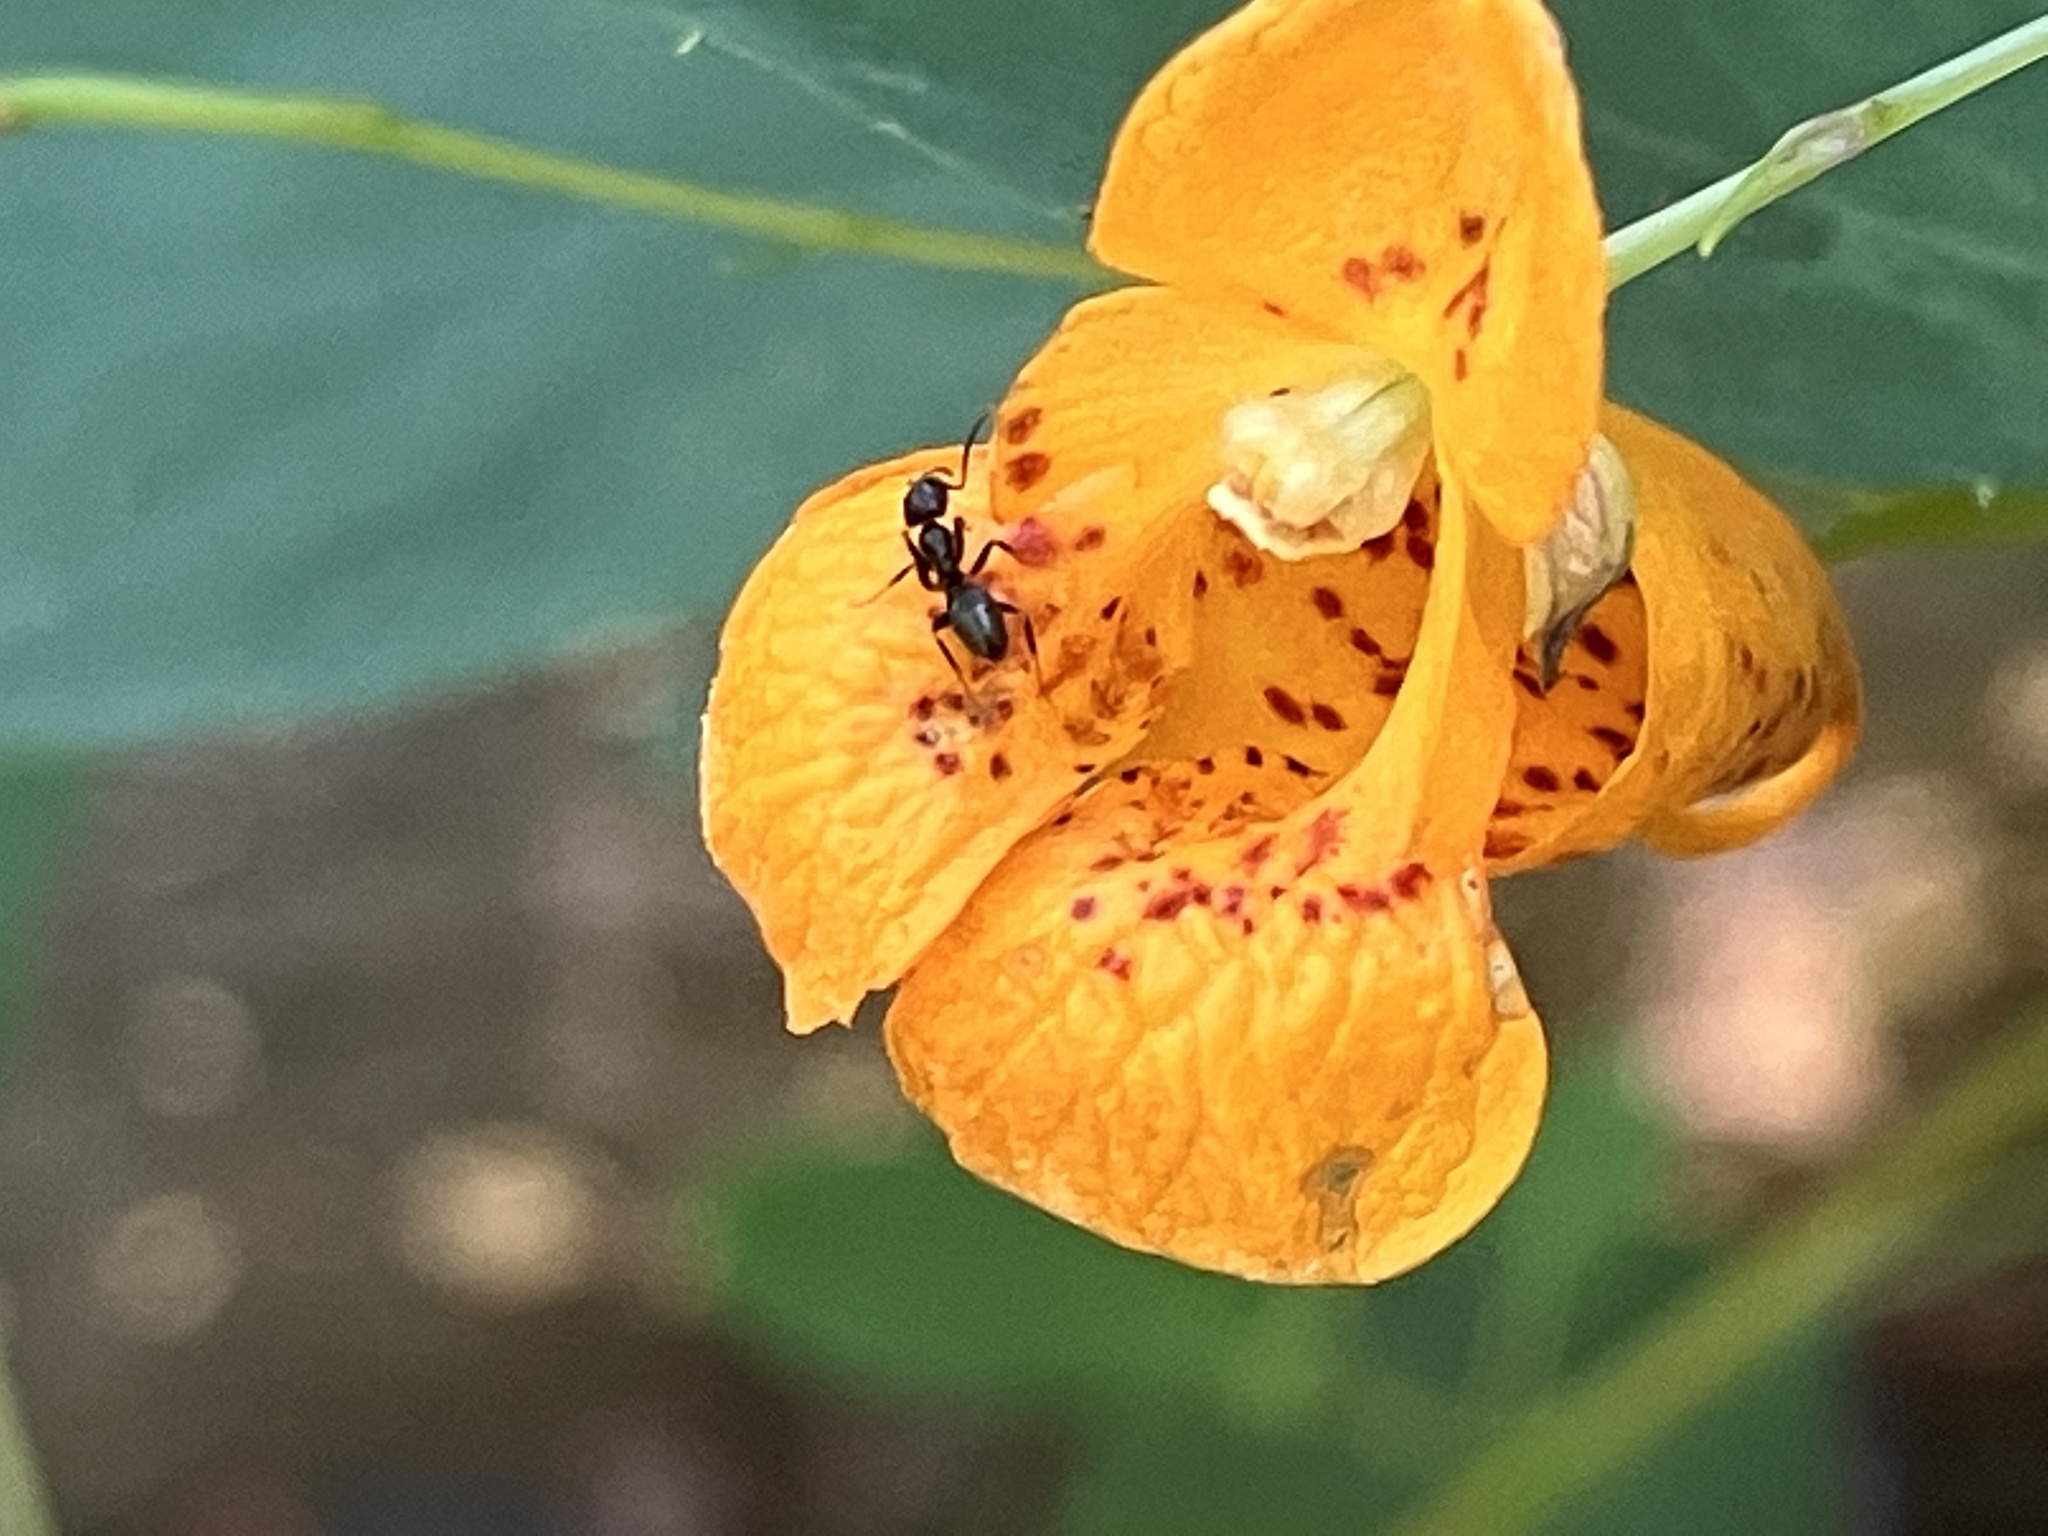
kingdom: Plantae
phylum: Tracheophyta
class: Magnoliopsida
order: Ericales
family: Balsaminaceae
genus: Impatiens
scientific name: Impatiens capensis
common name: Orange balsam
